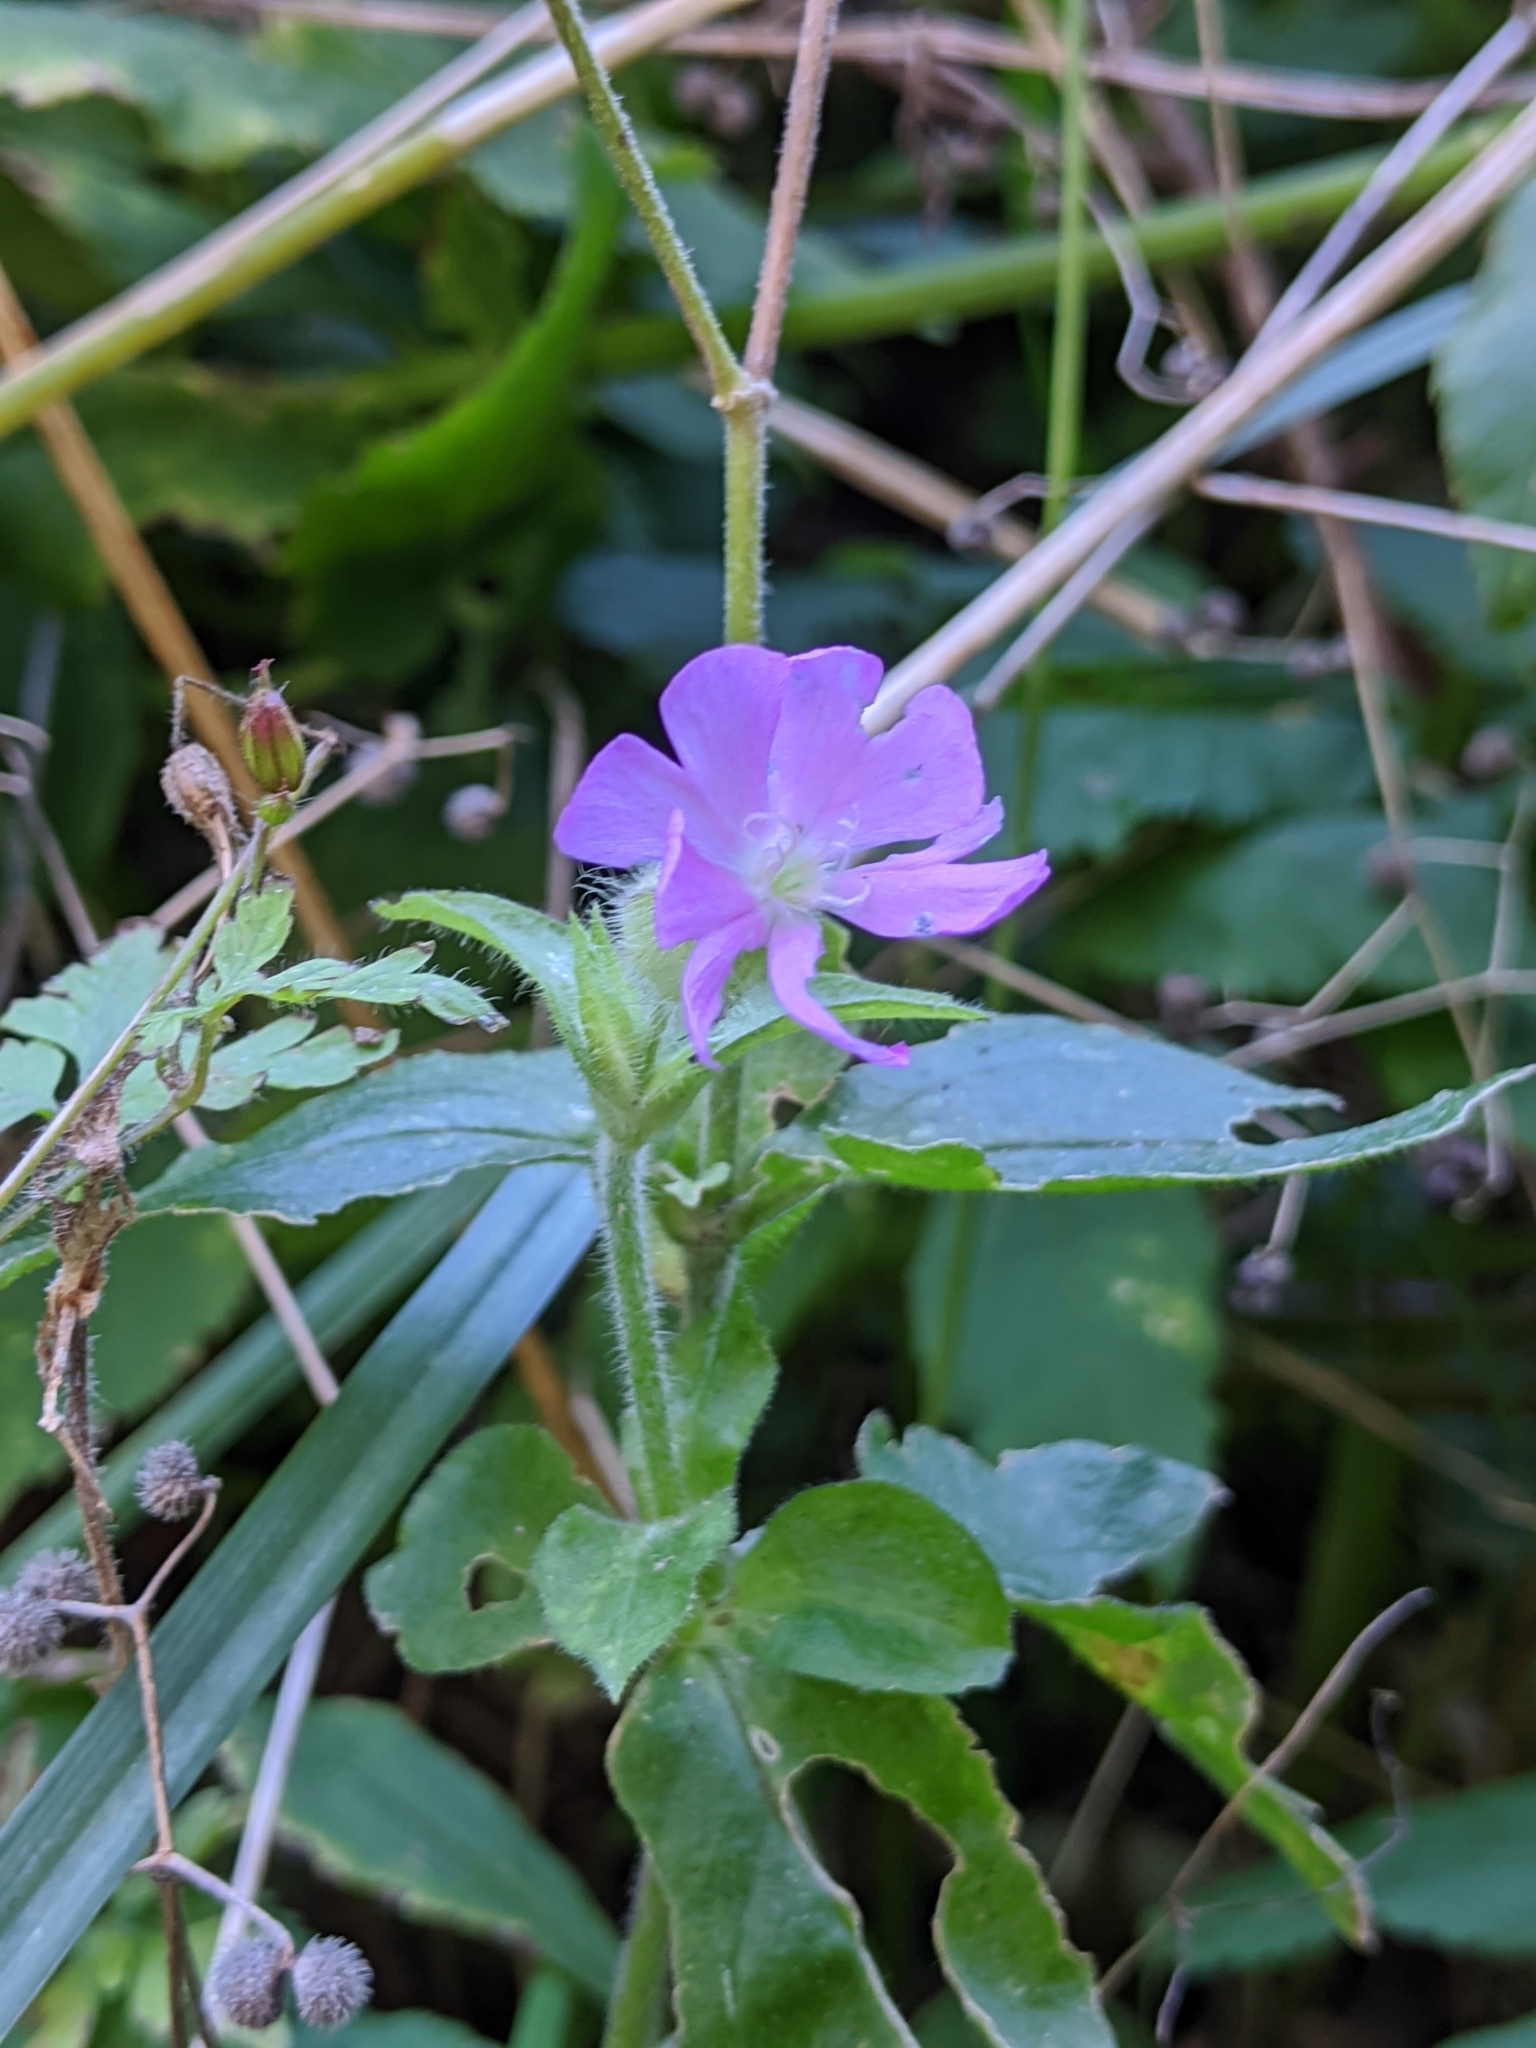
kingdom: Plantae
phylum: Tracheophyta
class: Magnoliopsida
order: Caryophyllales
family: Caryophyllaceae
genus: Silene
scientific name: Silene dioica
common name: Red campion
